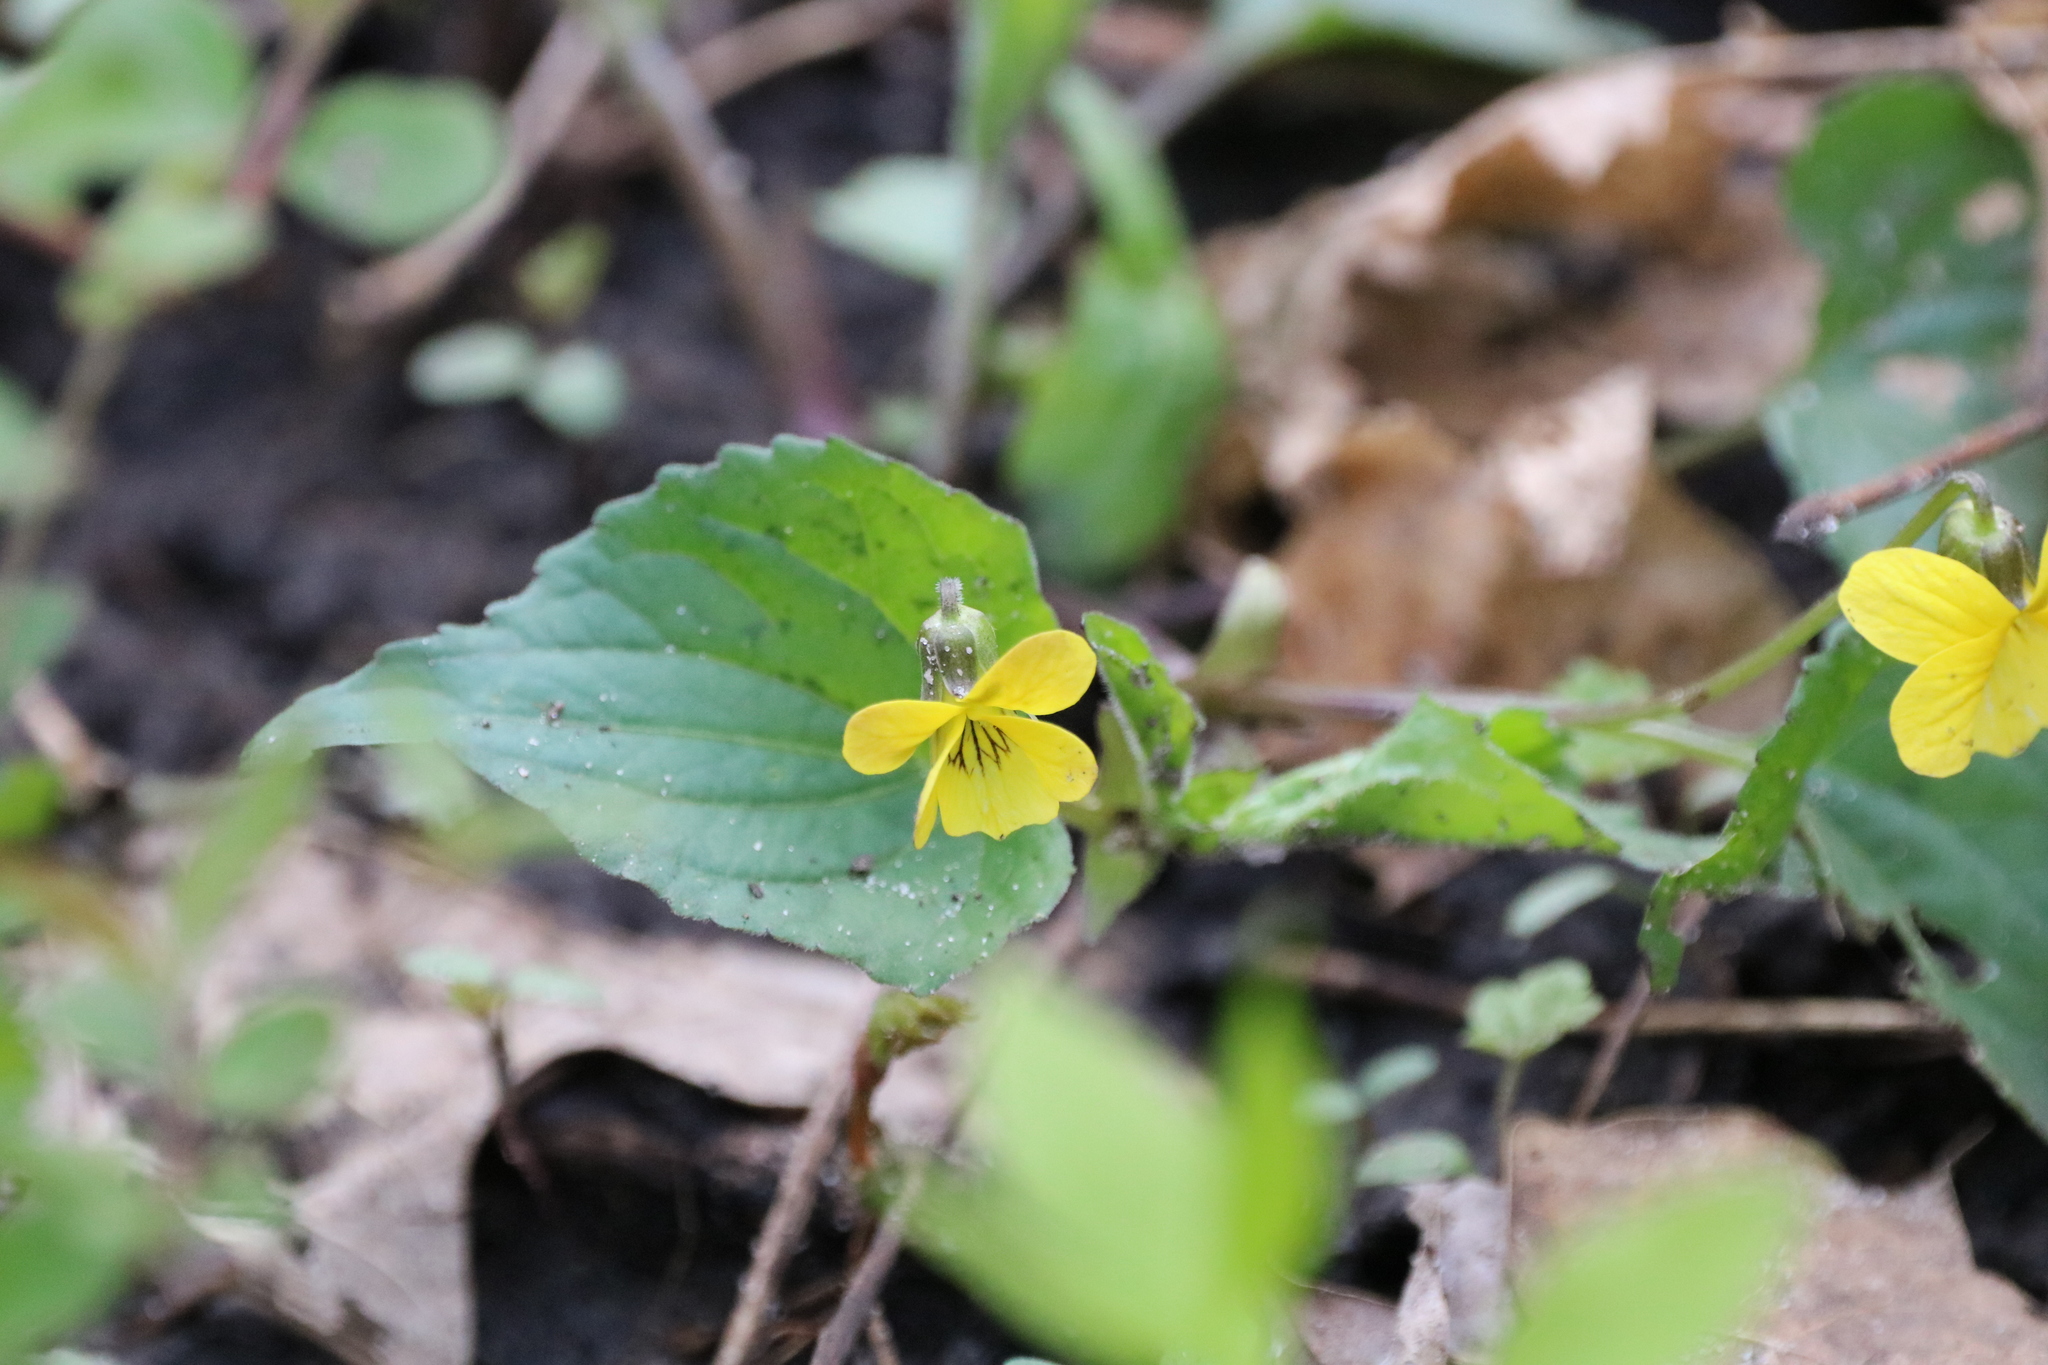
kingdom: Plantae
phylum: Tracheophyta
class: Magnoliopsida
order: Malpighiales
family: Violaceae
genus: Viola
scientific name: Viola eriocarpa
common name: Smooth yellow violet
